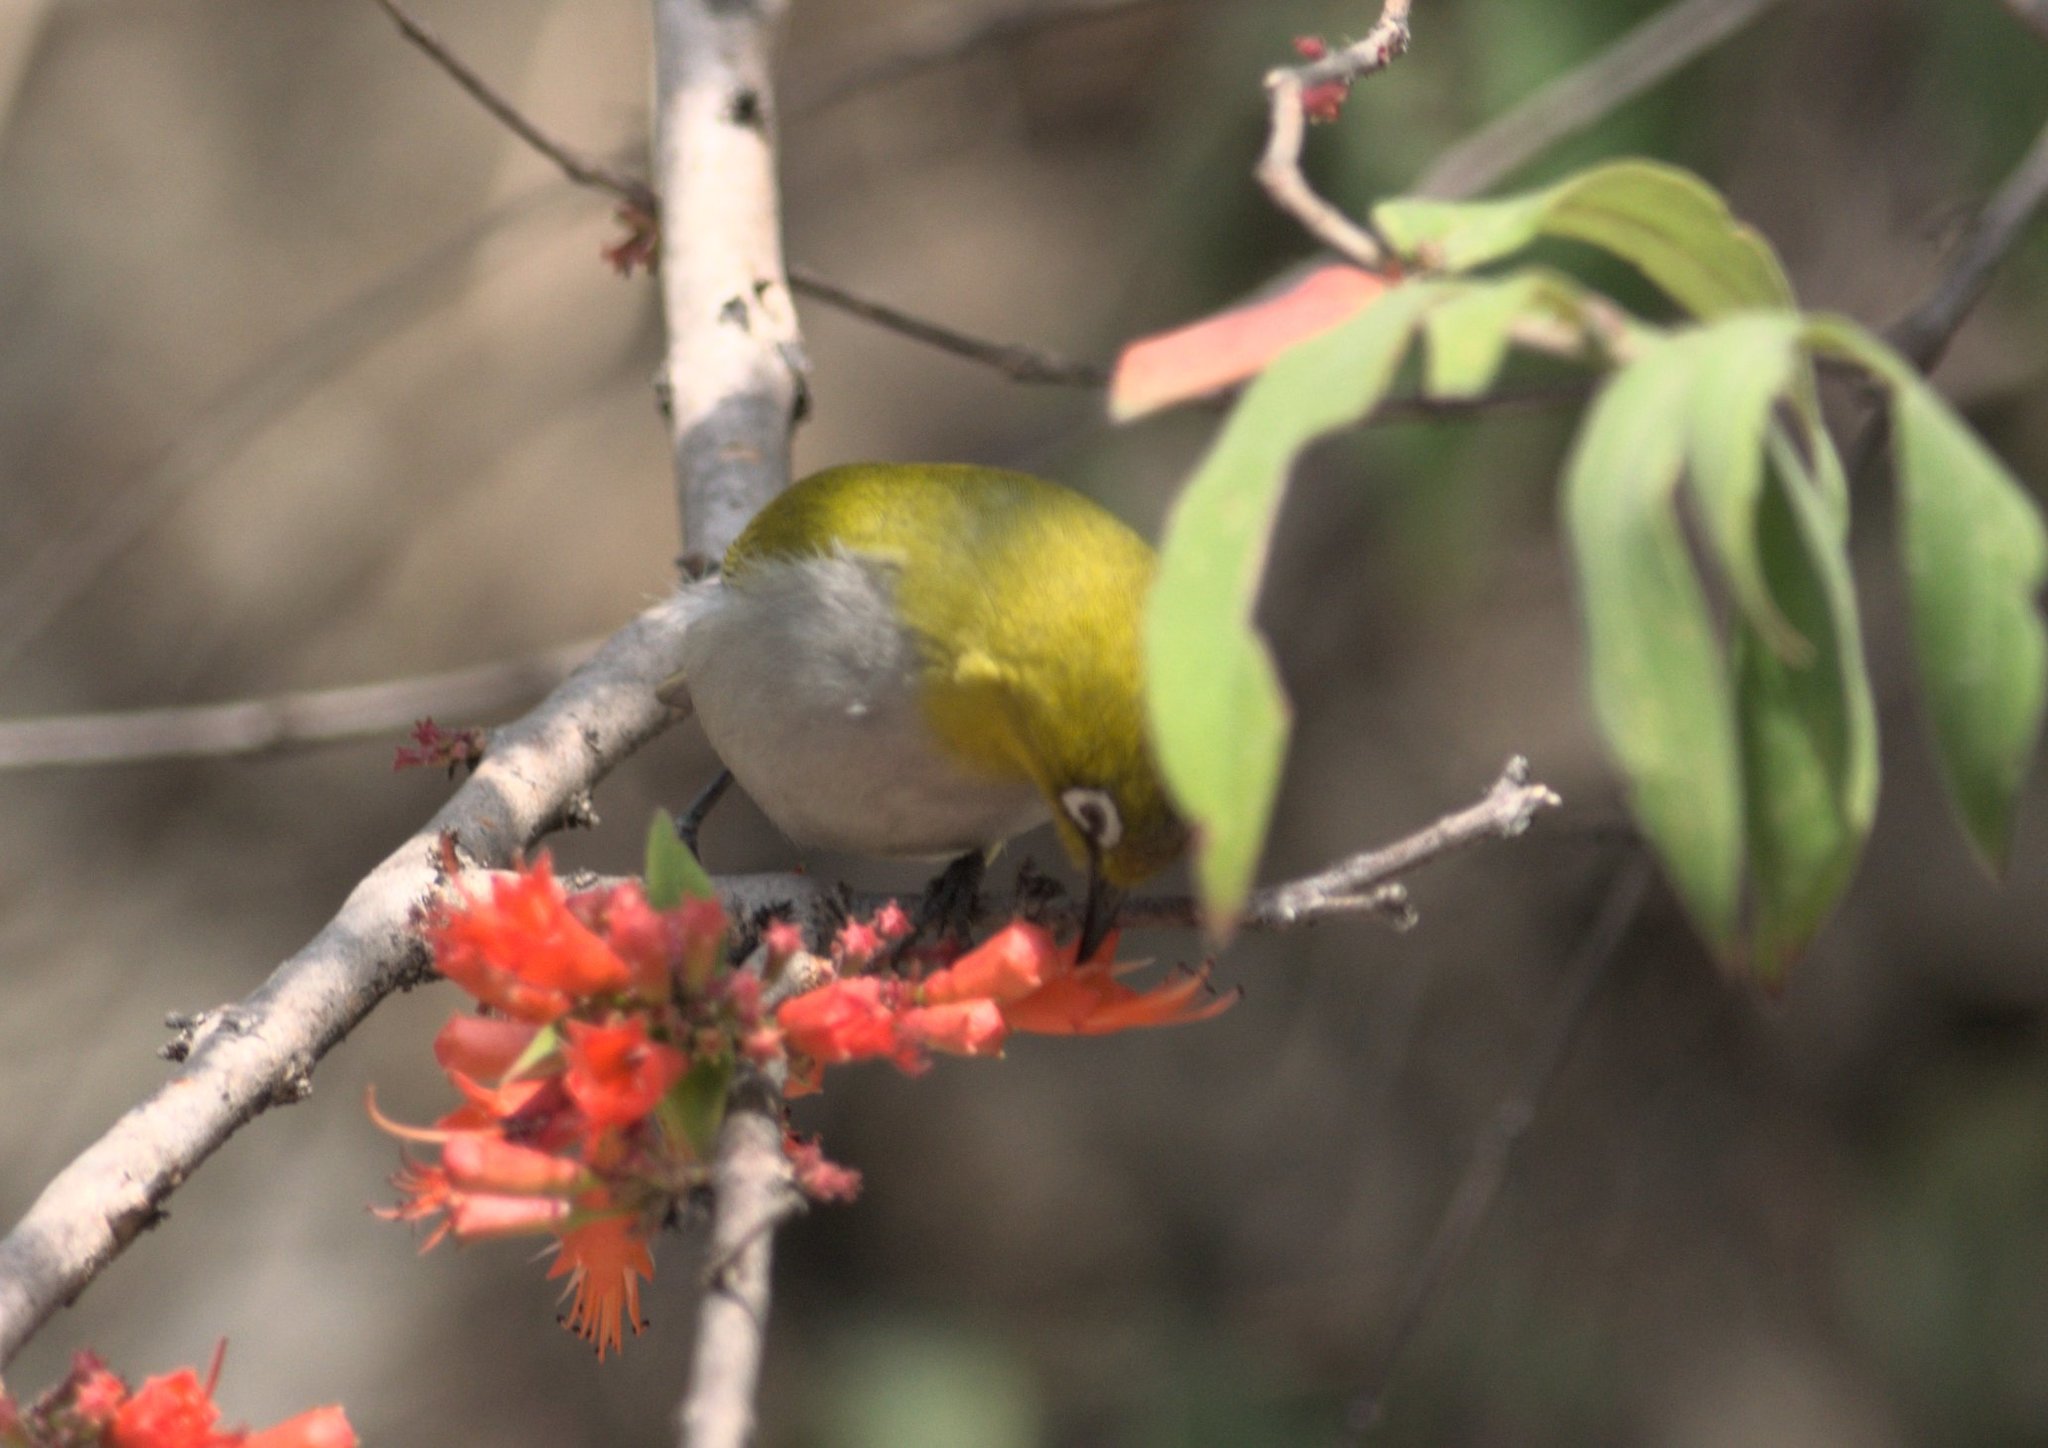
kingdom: Animalia
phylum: Chordata
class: Aves
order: Passeriformes
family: Zosteropidae
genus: Zosterops
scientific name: Zosterops palpebrosus
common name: Oriental white-eye
